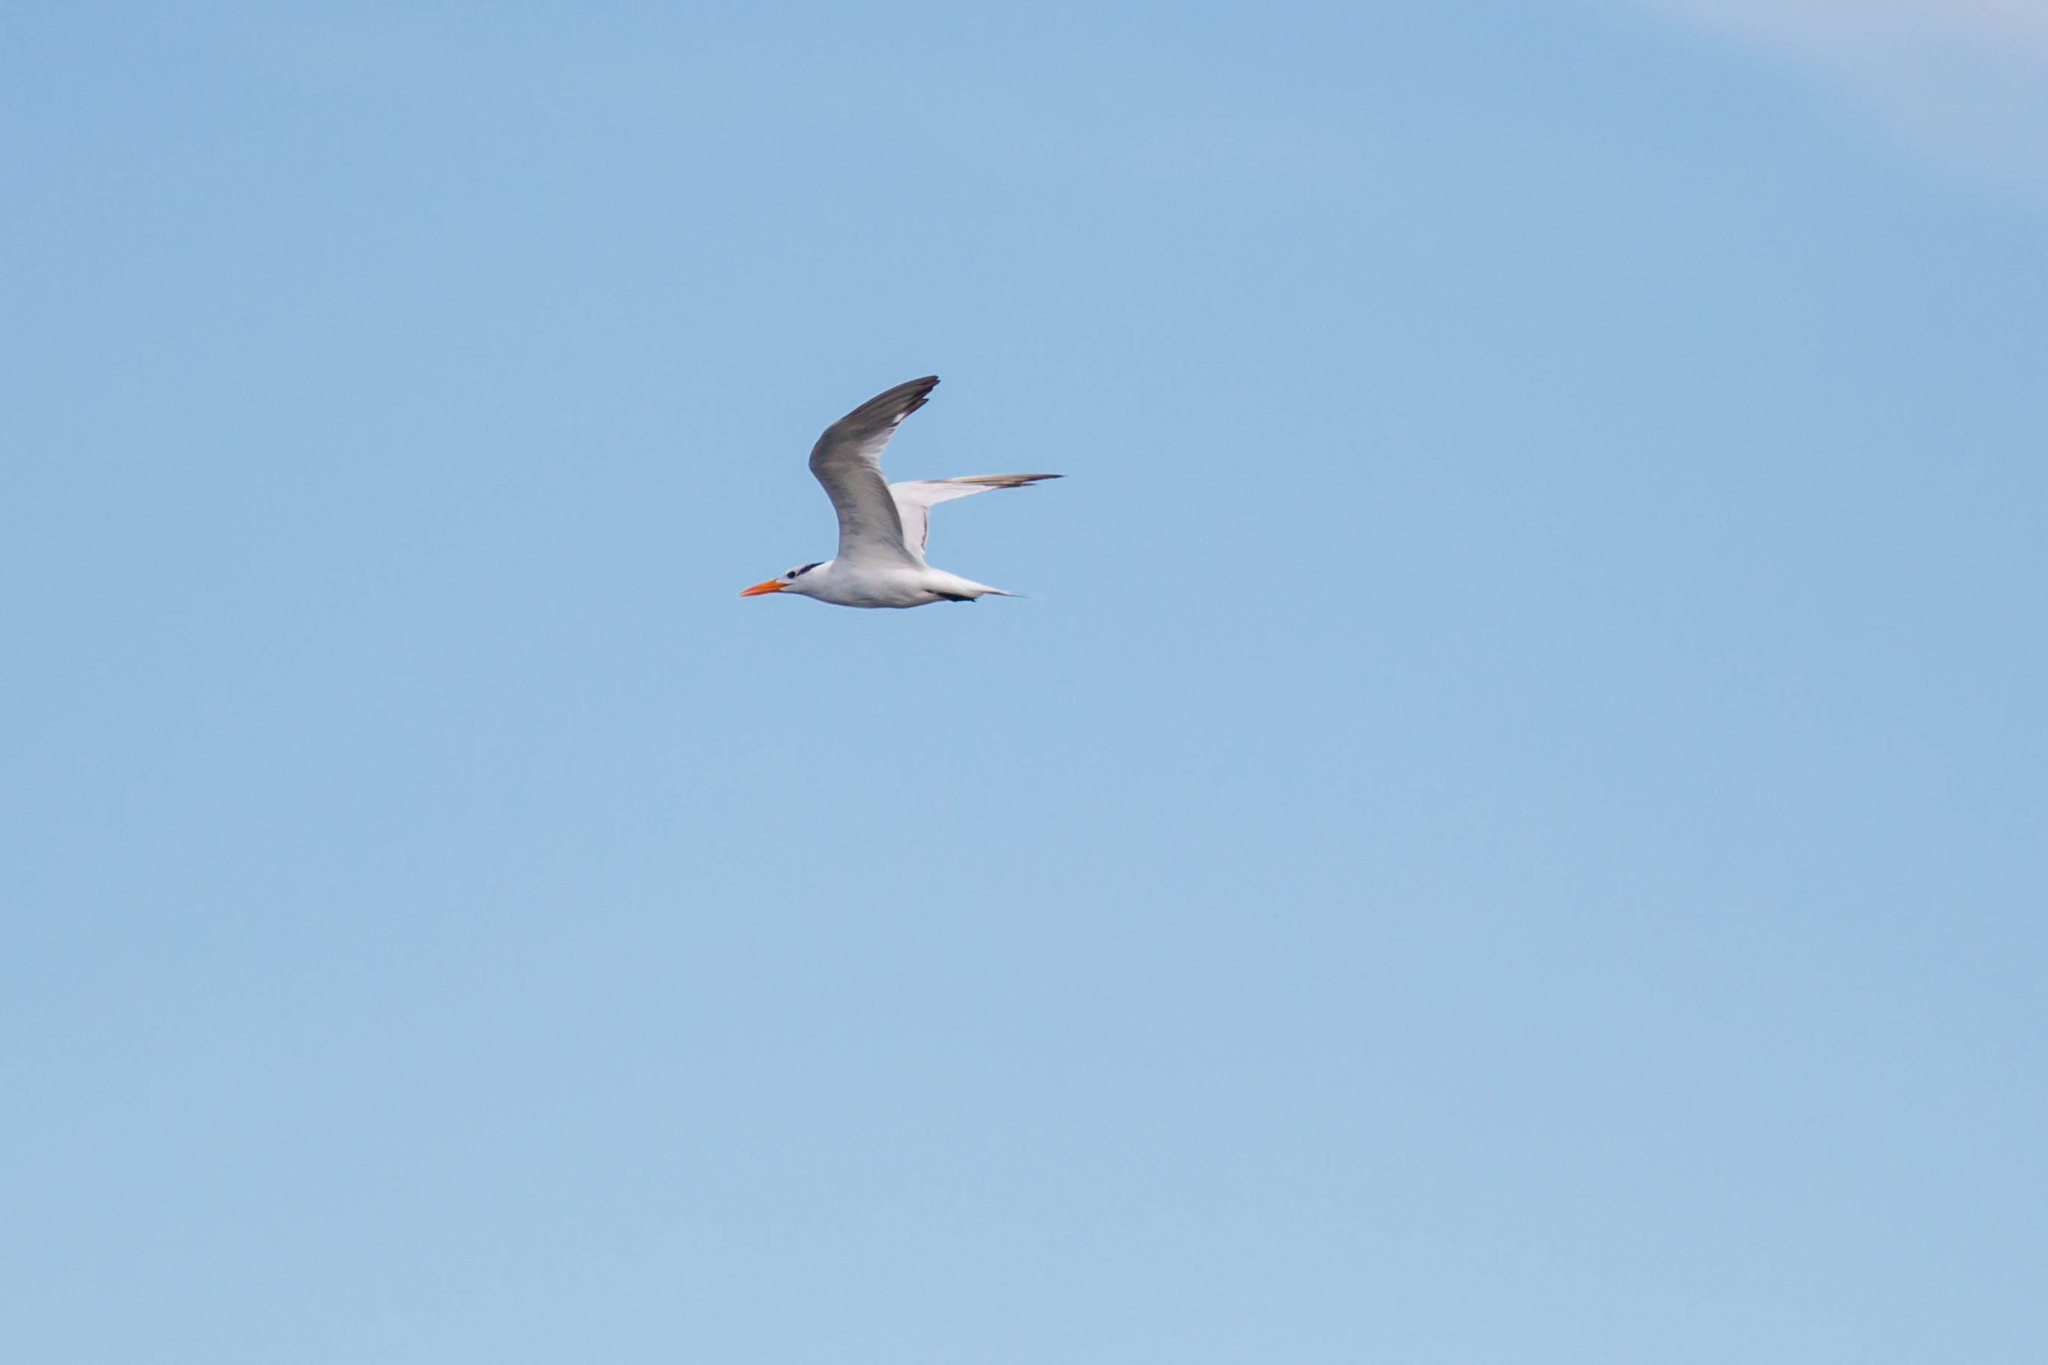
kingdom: Animalia
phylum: Chordata
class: Aves
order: Charadriiformes
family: Laridae
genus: Thalasseus
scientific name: Thalasseus maximus
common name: Royal tern
